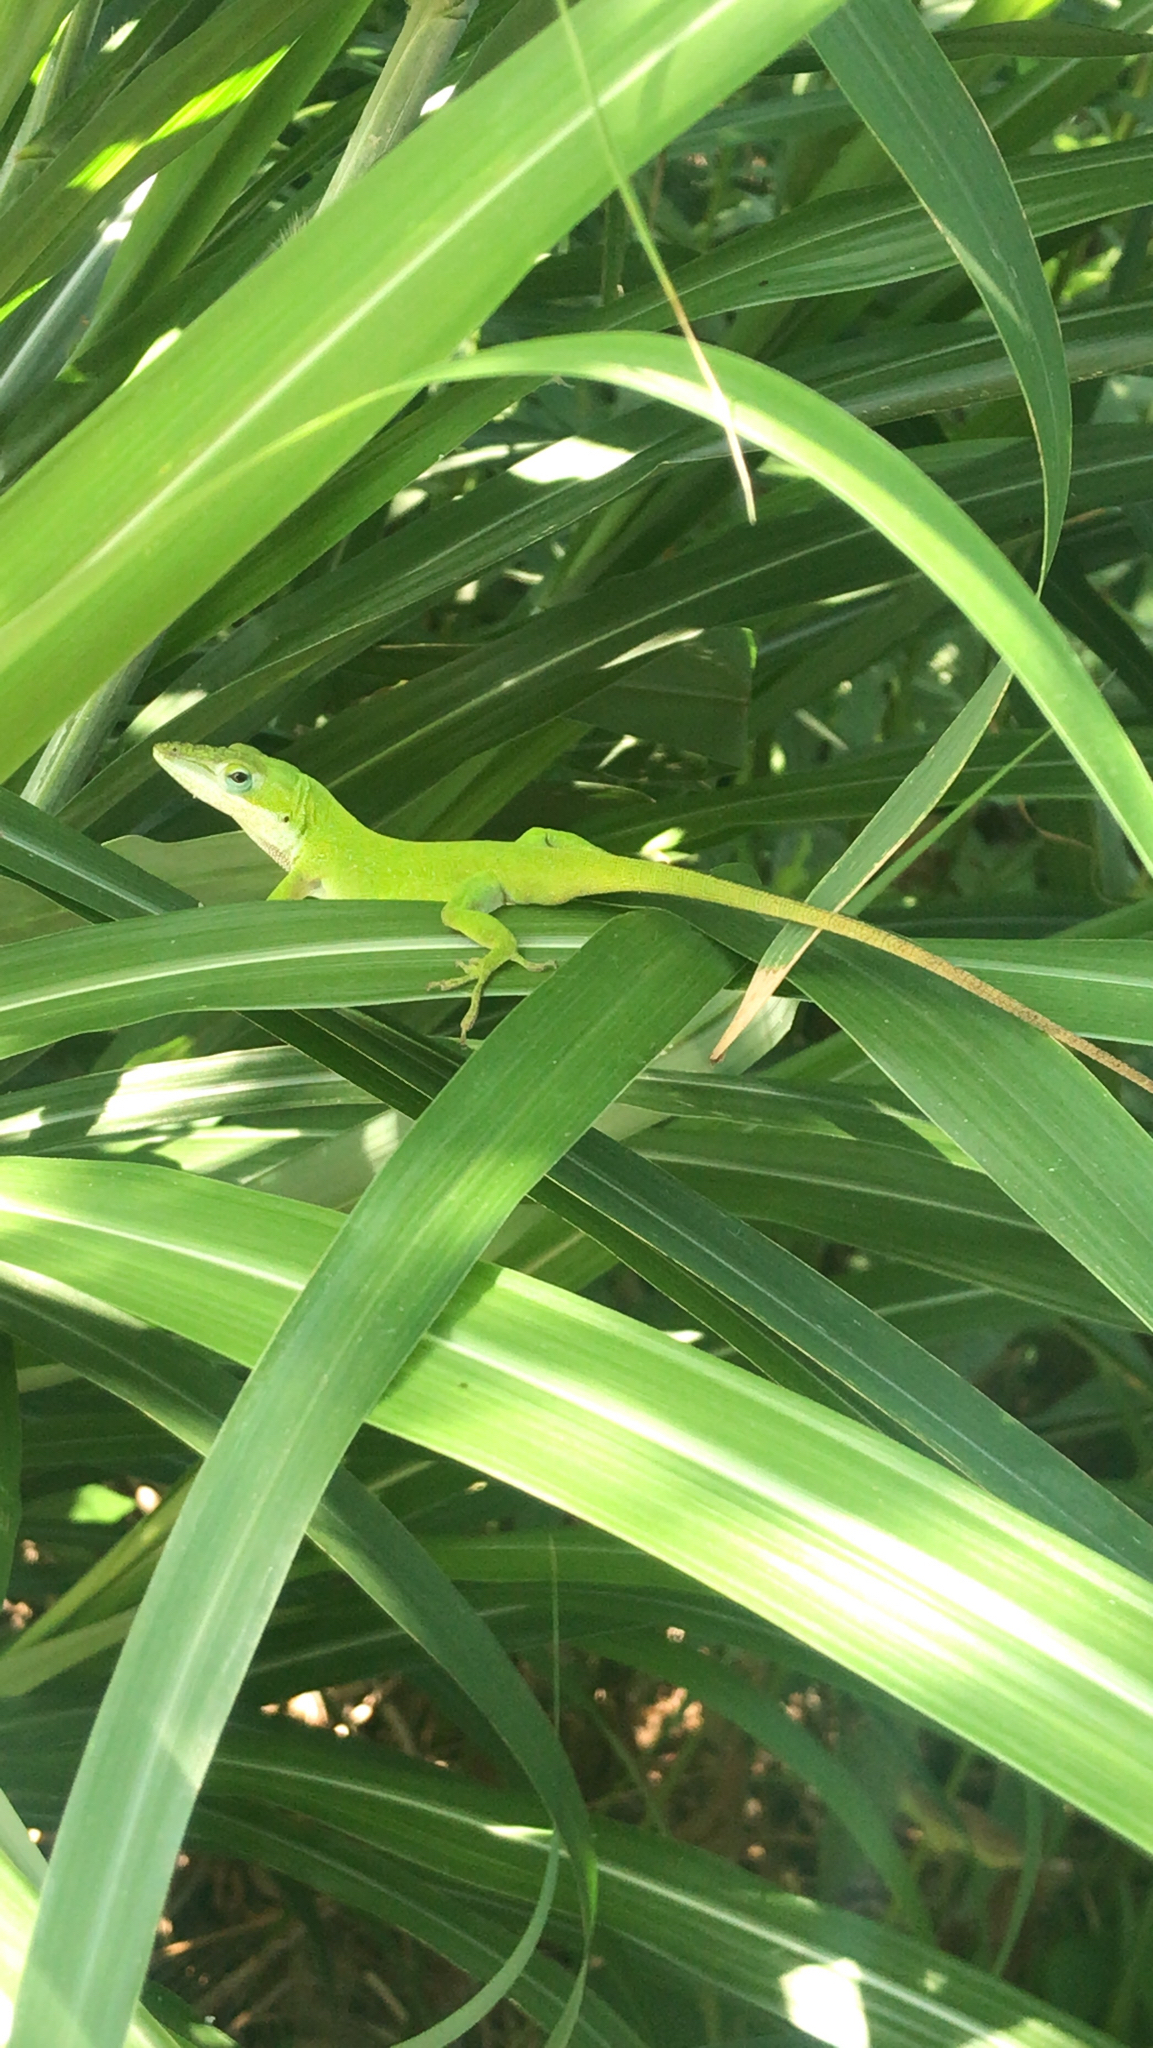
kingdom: Animalia
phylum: Chordata
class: Squamata
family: Dactyloidae
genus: Anolis
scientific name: Anolis carolinensis
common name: Green anole
